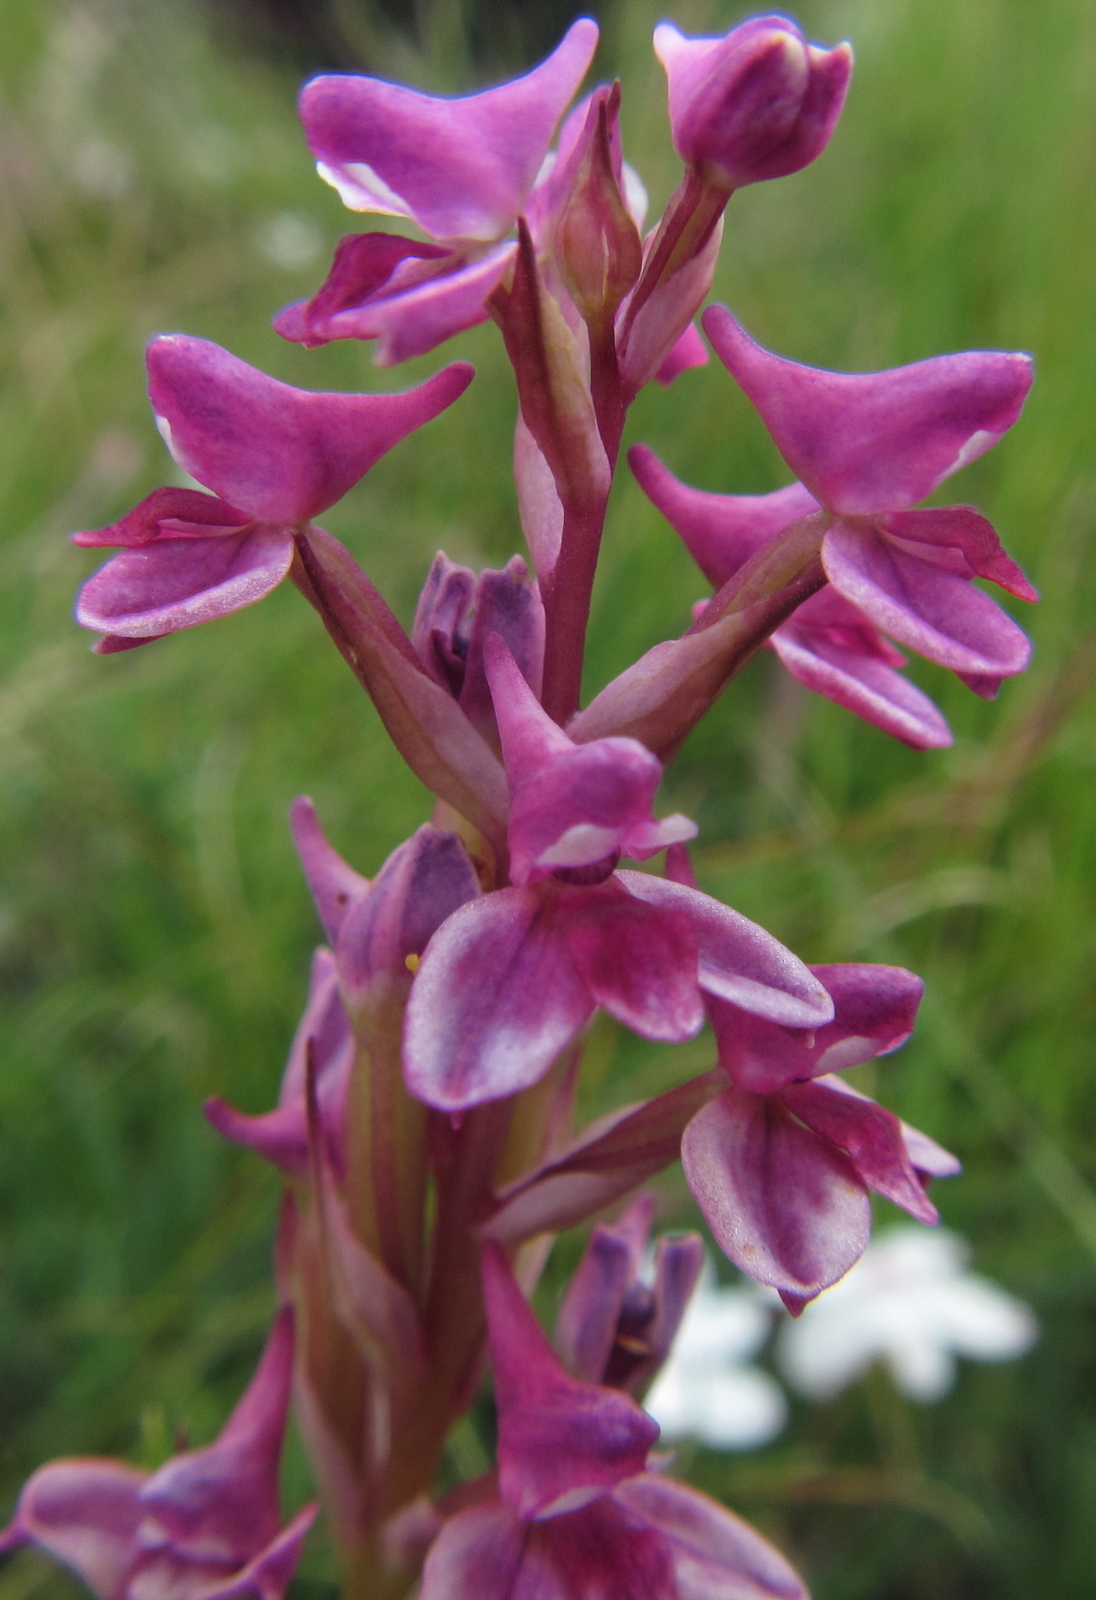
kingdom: Plantae
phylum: Tracheophyta
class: Liliopsida
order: Asparagales
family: Orchidaceae
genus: Disa
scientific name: Disa stricta
